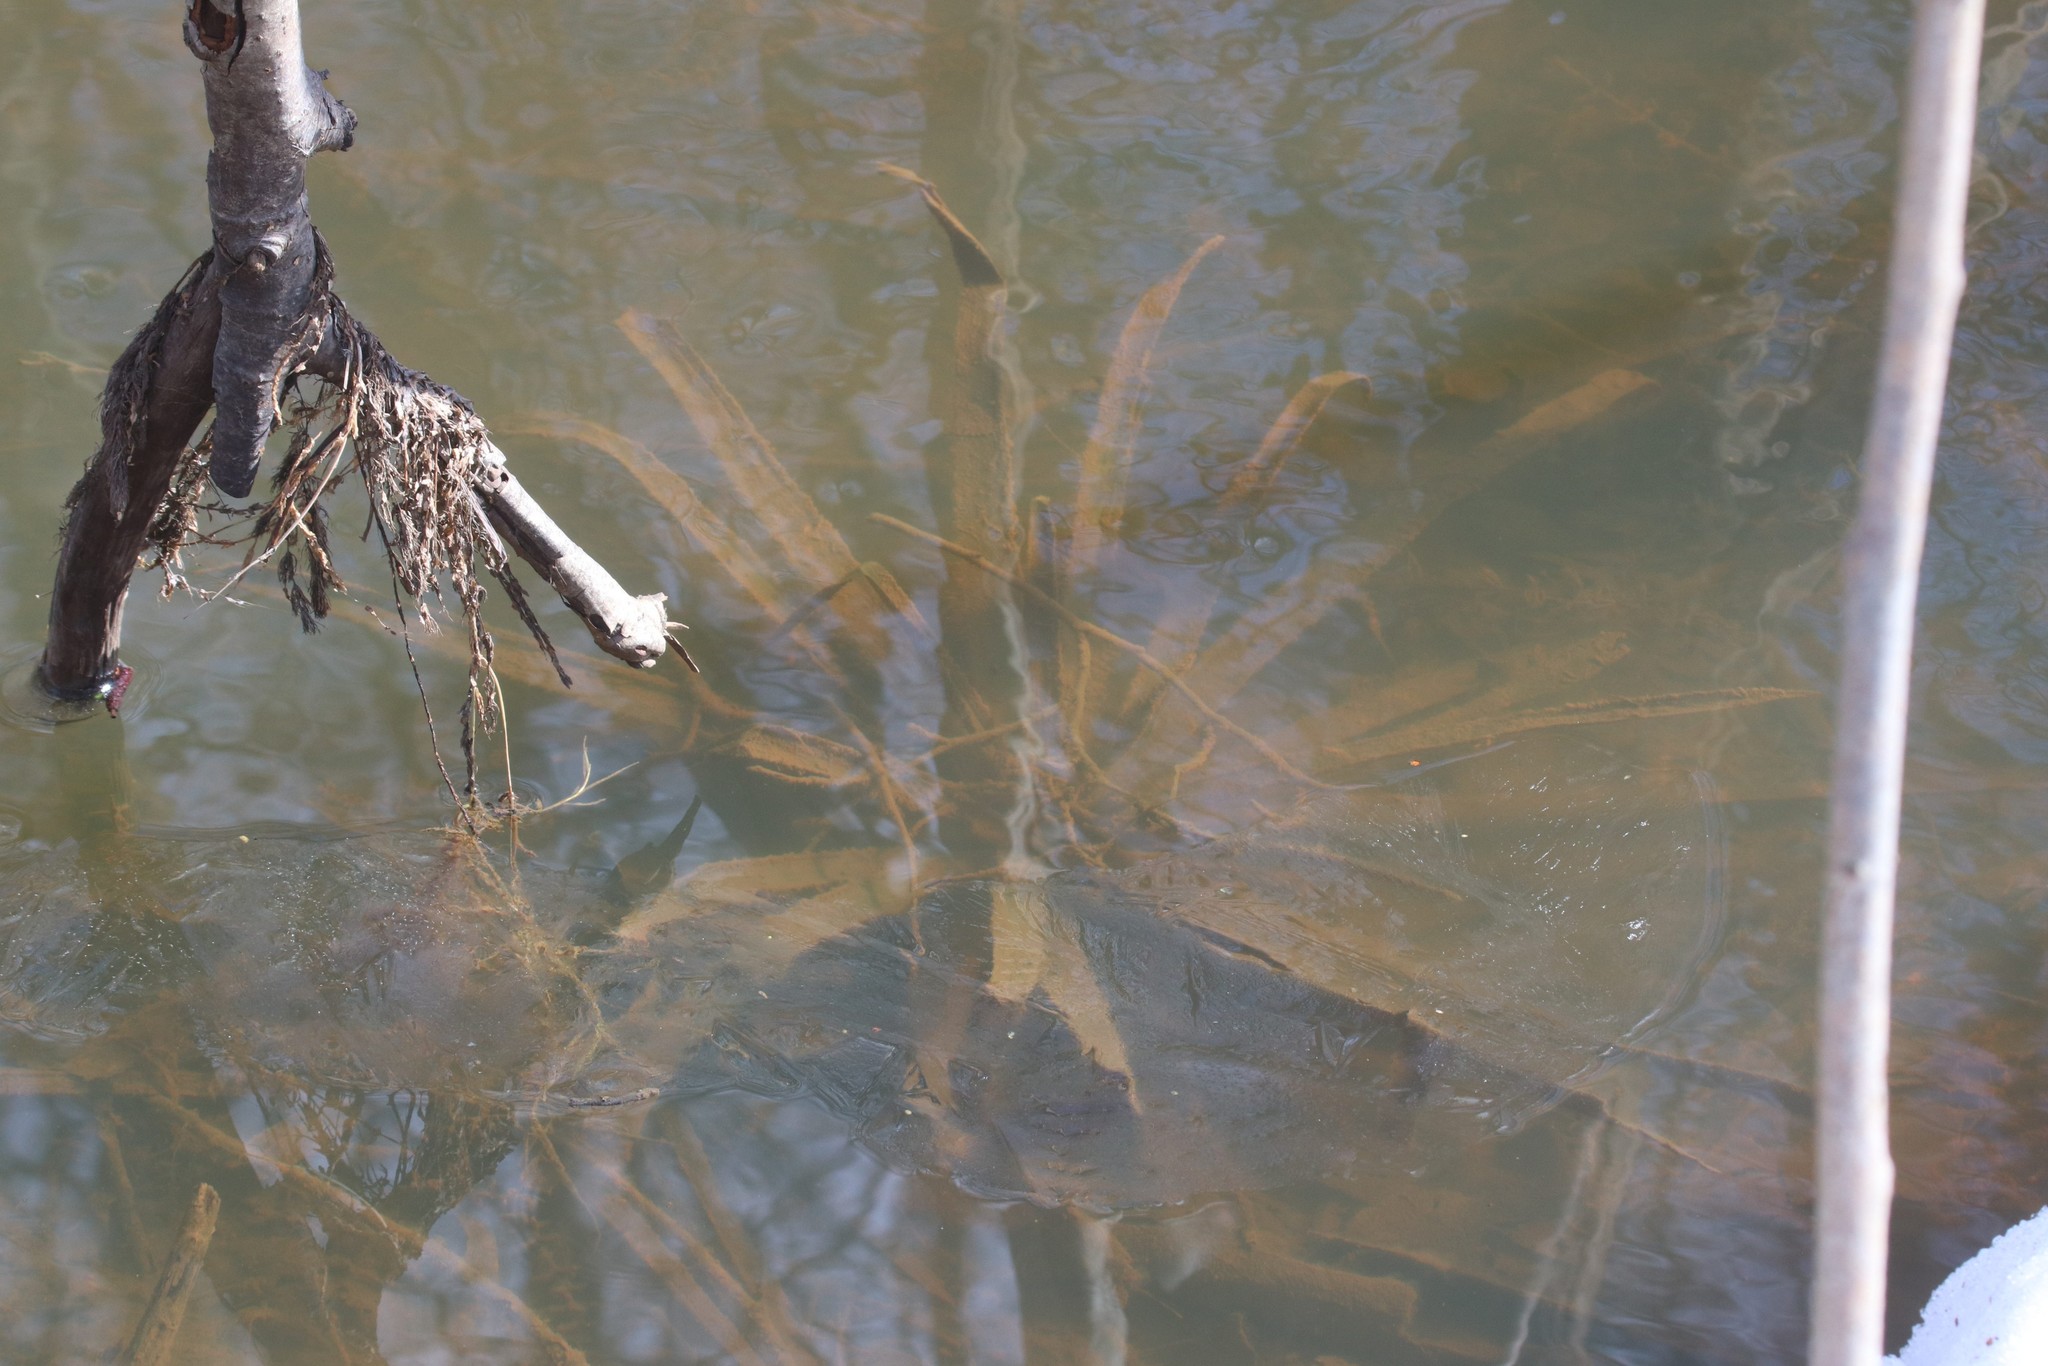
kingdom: Plantae
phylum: Tracheophyta
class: Liliopsida
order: Alismatales
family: Hydrocharitaceae
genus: Stratiotes
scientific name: Stratiotes aloides
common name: Water-soldier
